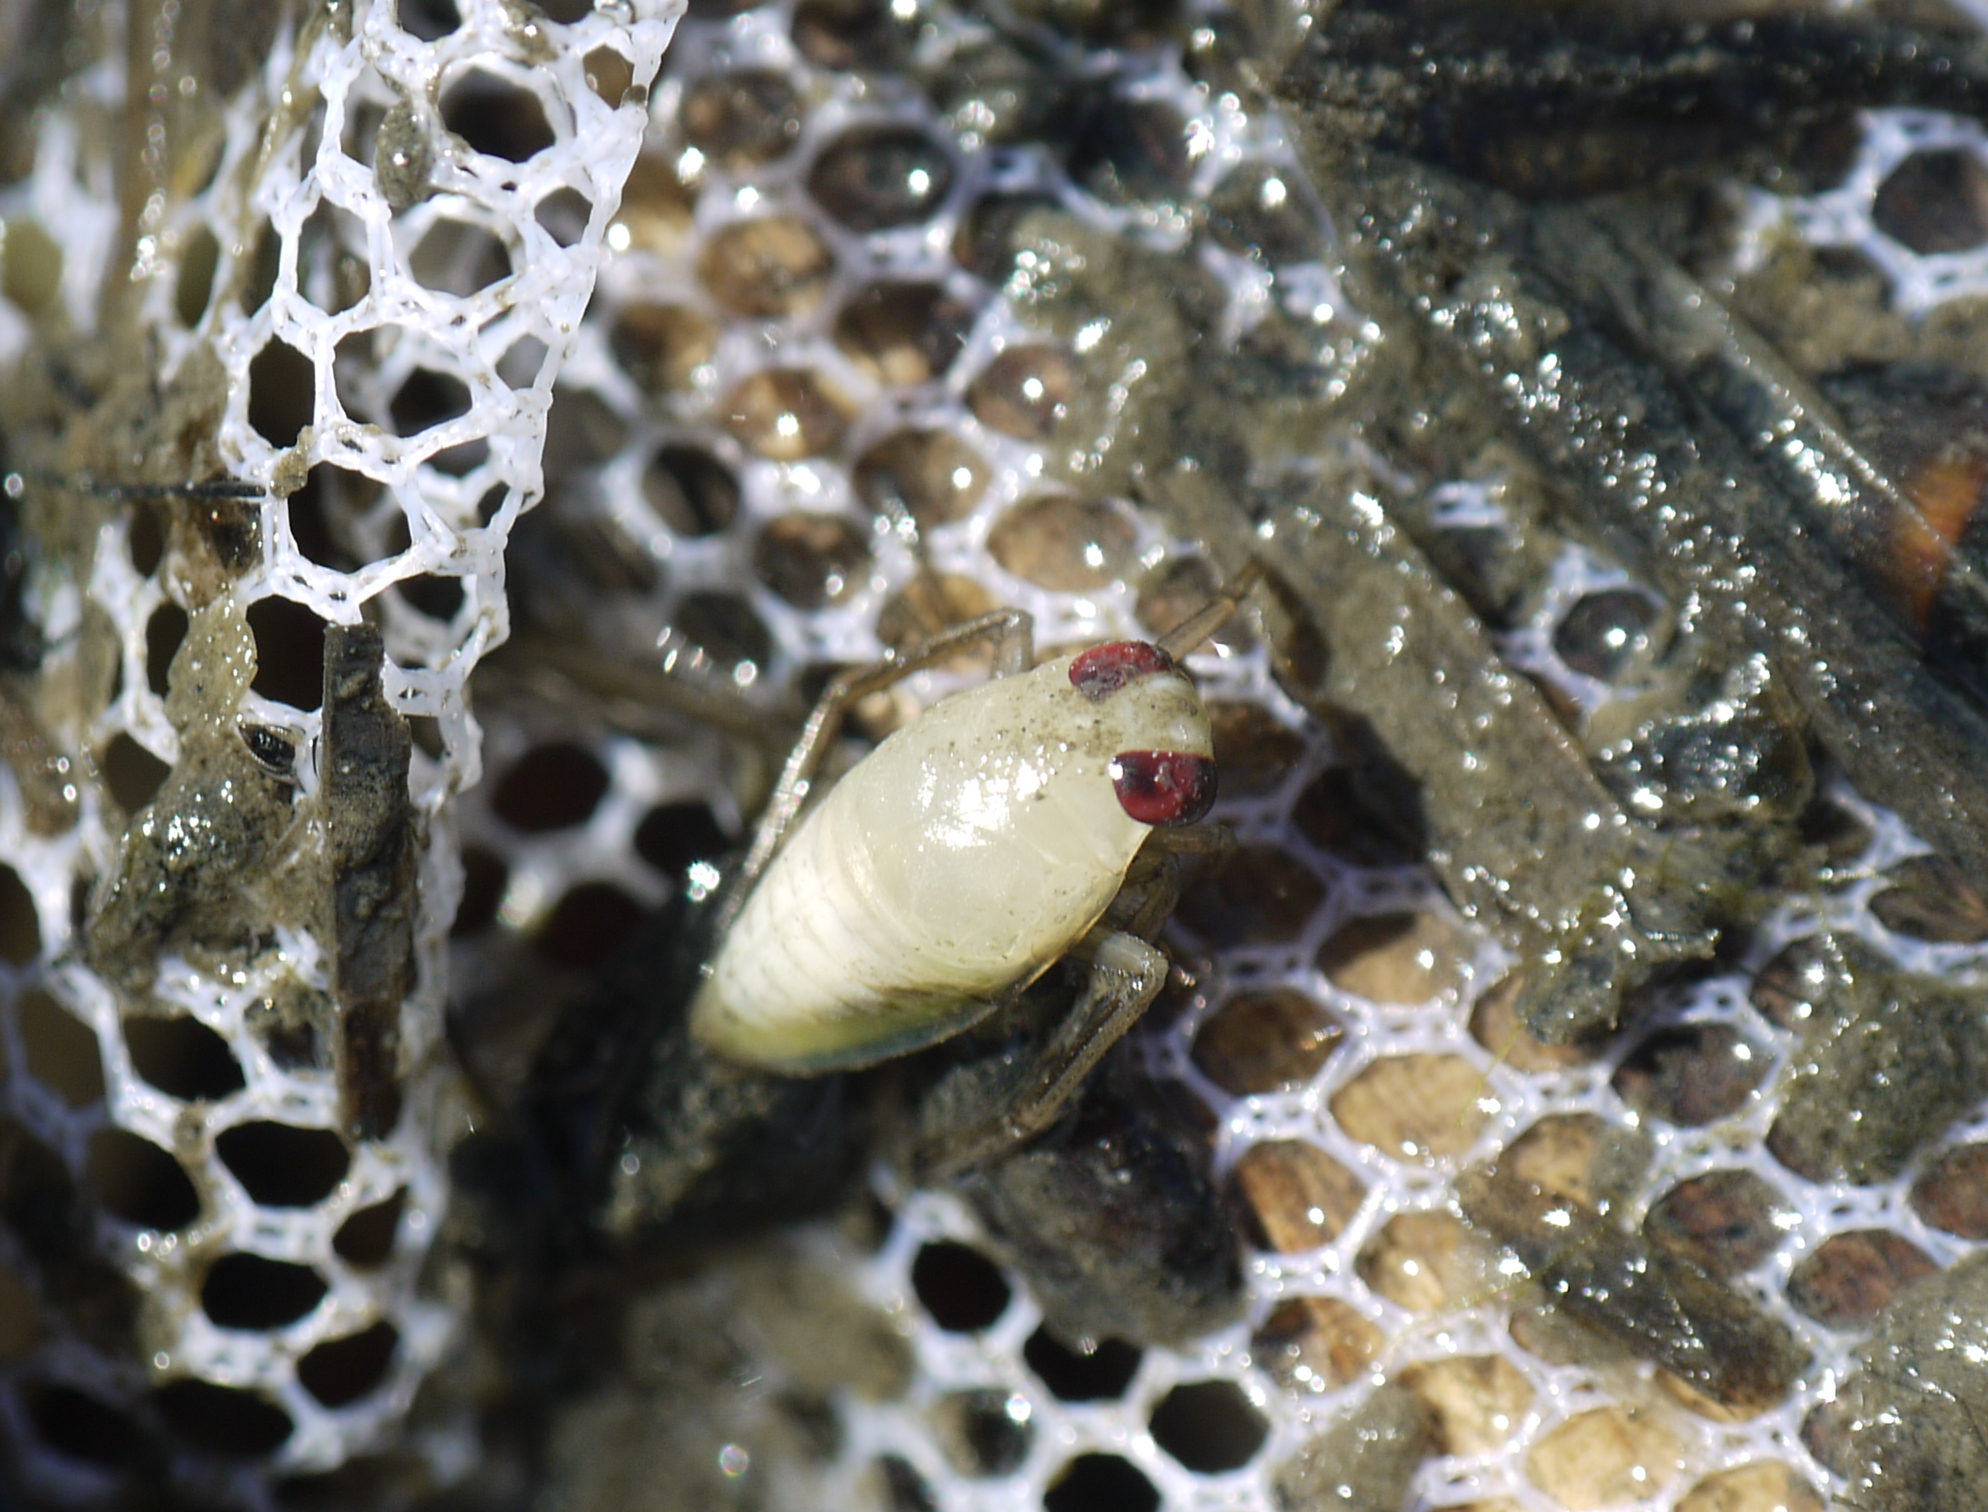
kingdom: Animalia
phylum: Arthropoda
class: Insecta
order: Hemiptera
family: Notonectidae
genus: Notonecta
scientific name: Notonecta
